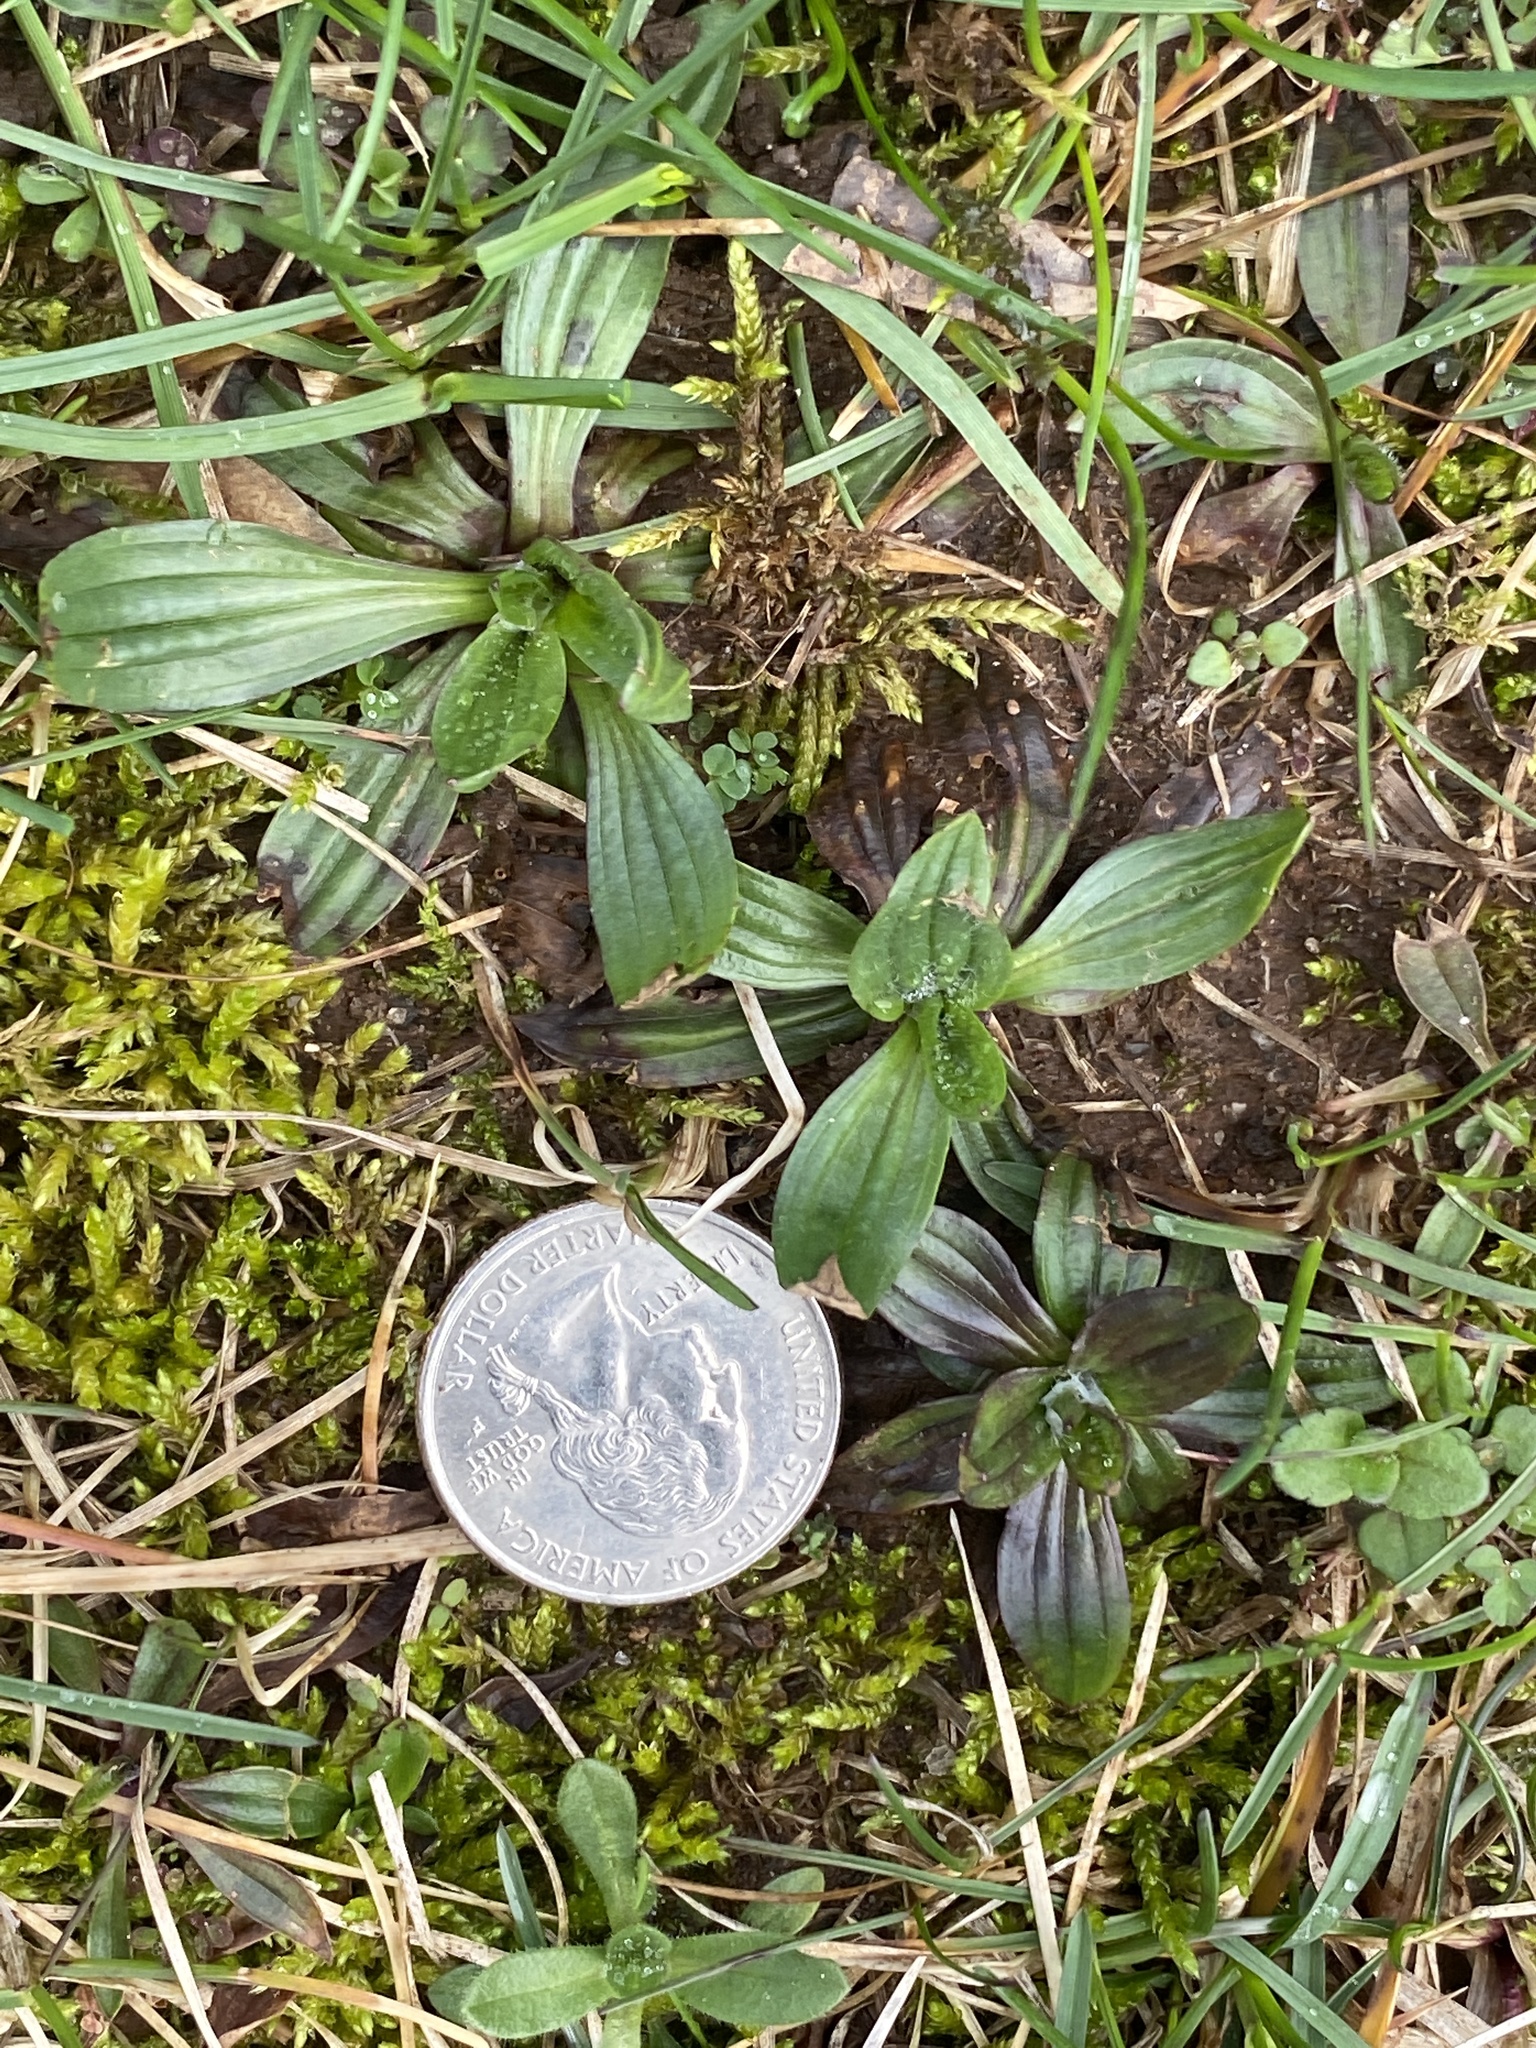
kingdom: Plantae
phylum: Tracheophyta
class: Magnoliopsida
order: Lamiales
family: Plantaginaceae
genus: Plantago
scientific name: Plantago lanceolata
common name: Ribwort plantain
